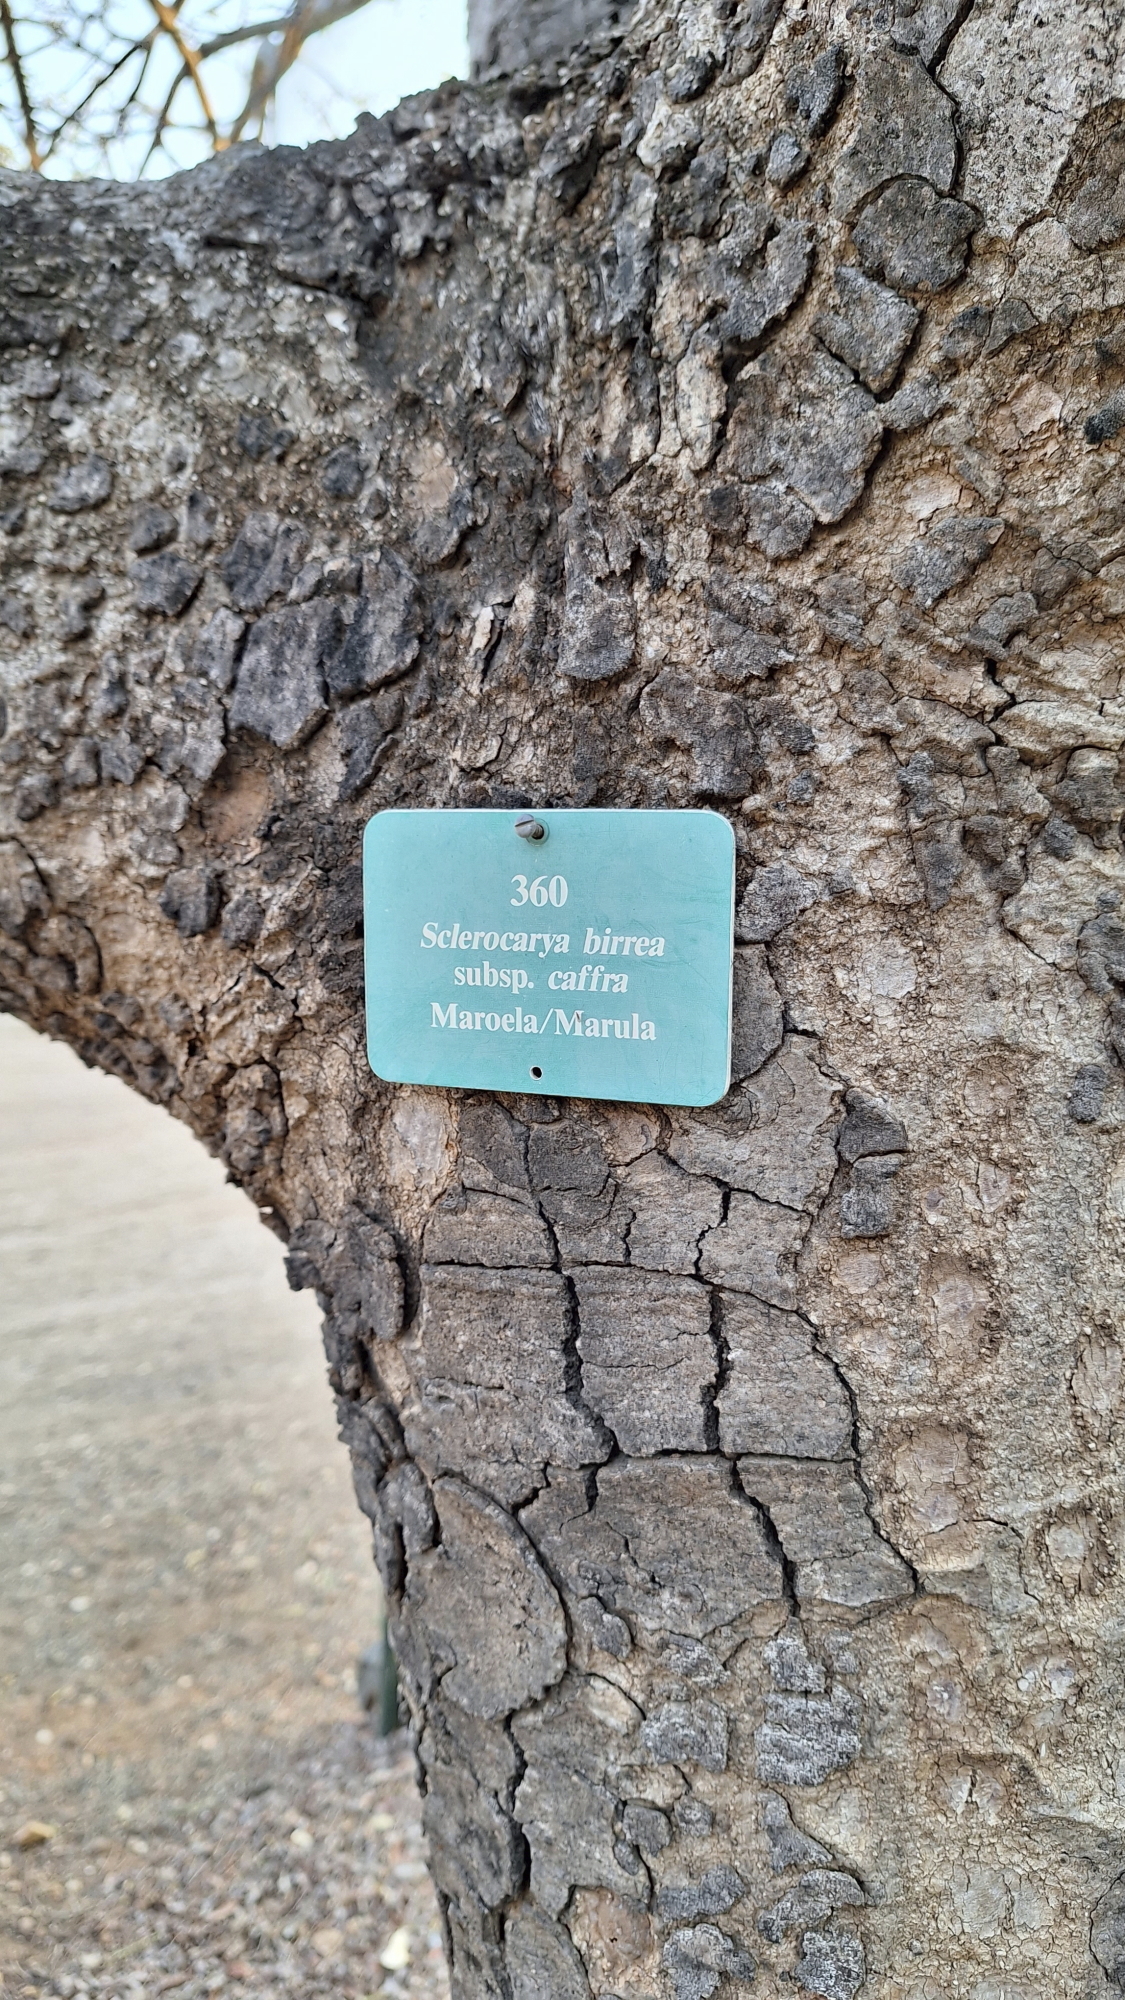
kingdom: Plantae
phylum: Tracheophyta
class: Magnoliopsida
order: Sapindales
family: Anacardiaceae
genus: Sclerocarya
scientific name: Sclerocarya birrea
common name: Marula
